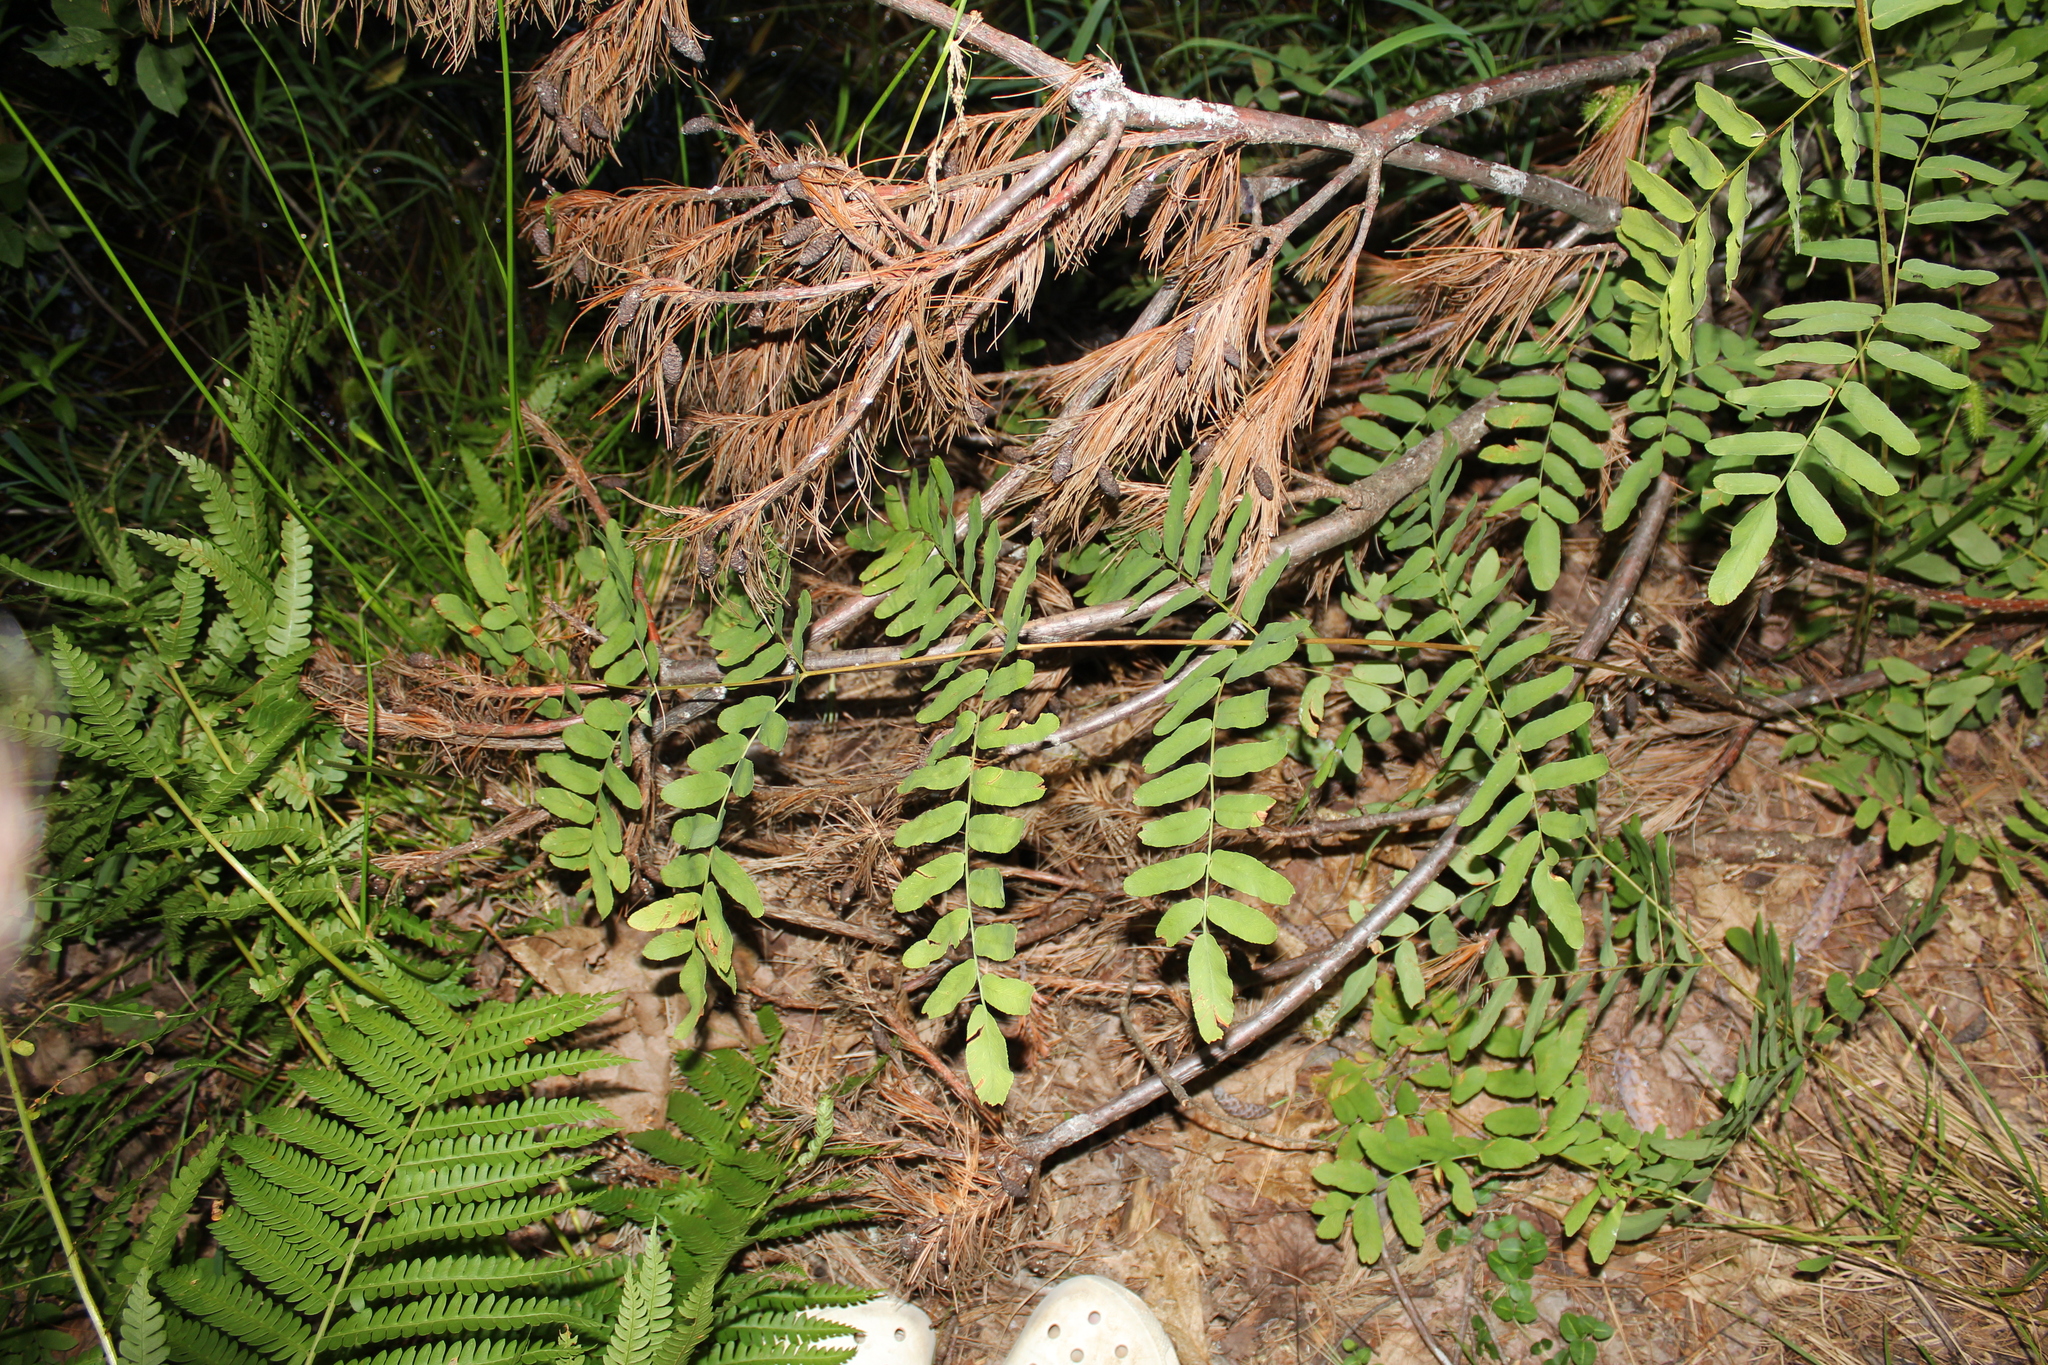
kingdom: Plantae
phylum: Tracheophyta
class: Polypodiopsida
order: Osmundales
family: Osmundaceae
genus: Osmunda
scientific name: Osmunda spectabilis
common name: American royal fern
